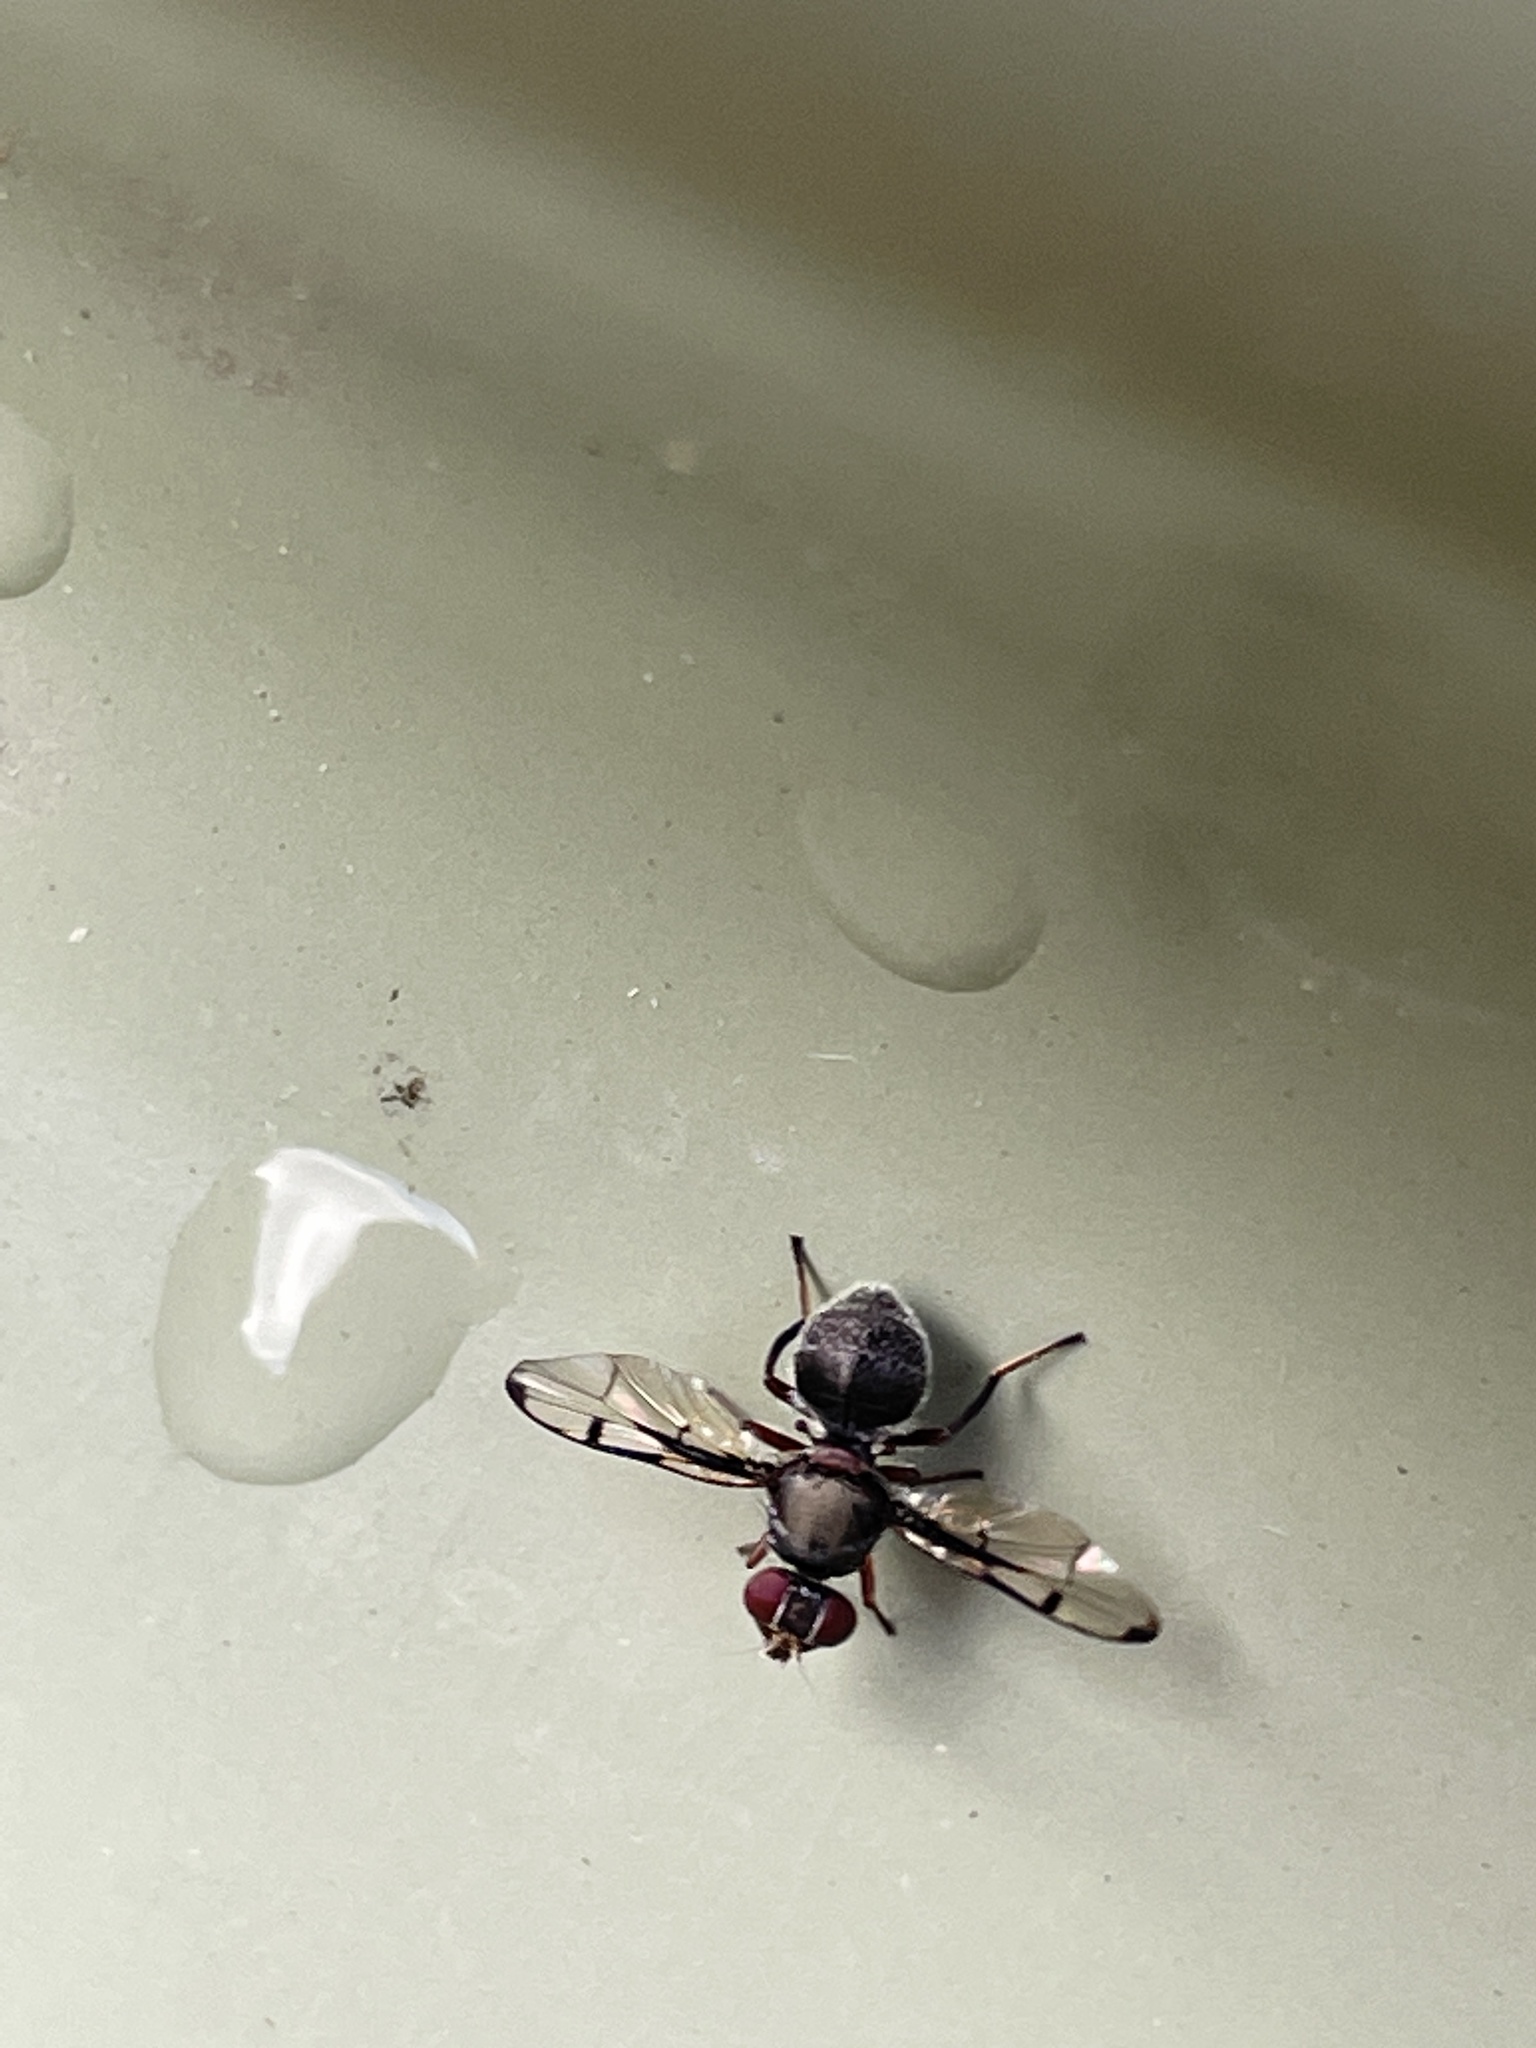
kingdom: Animalia
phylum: Arthropoda
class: Insecta
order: Diptera
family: Platystomatidae
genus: Pogonortalis
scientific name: Pogonortalis doclea
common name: Boatman fly
